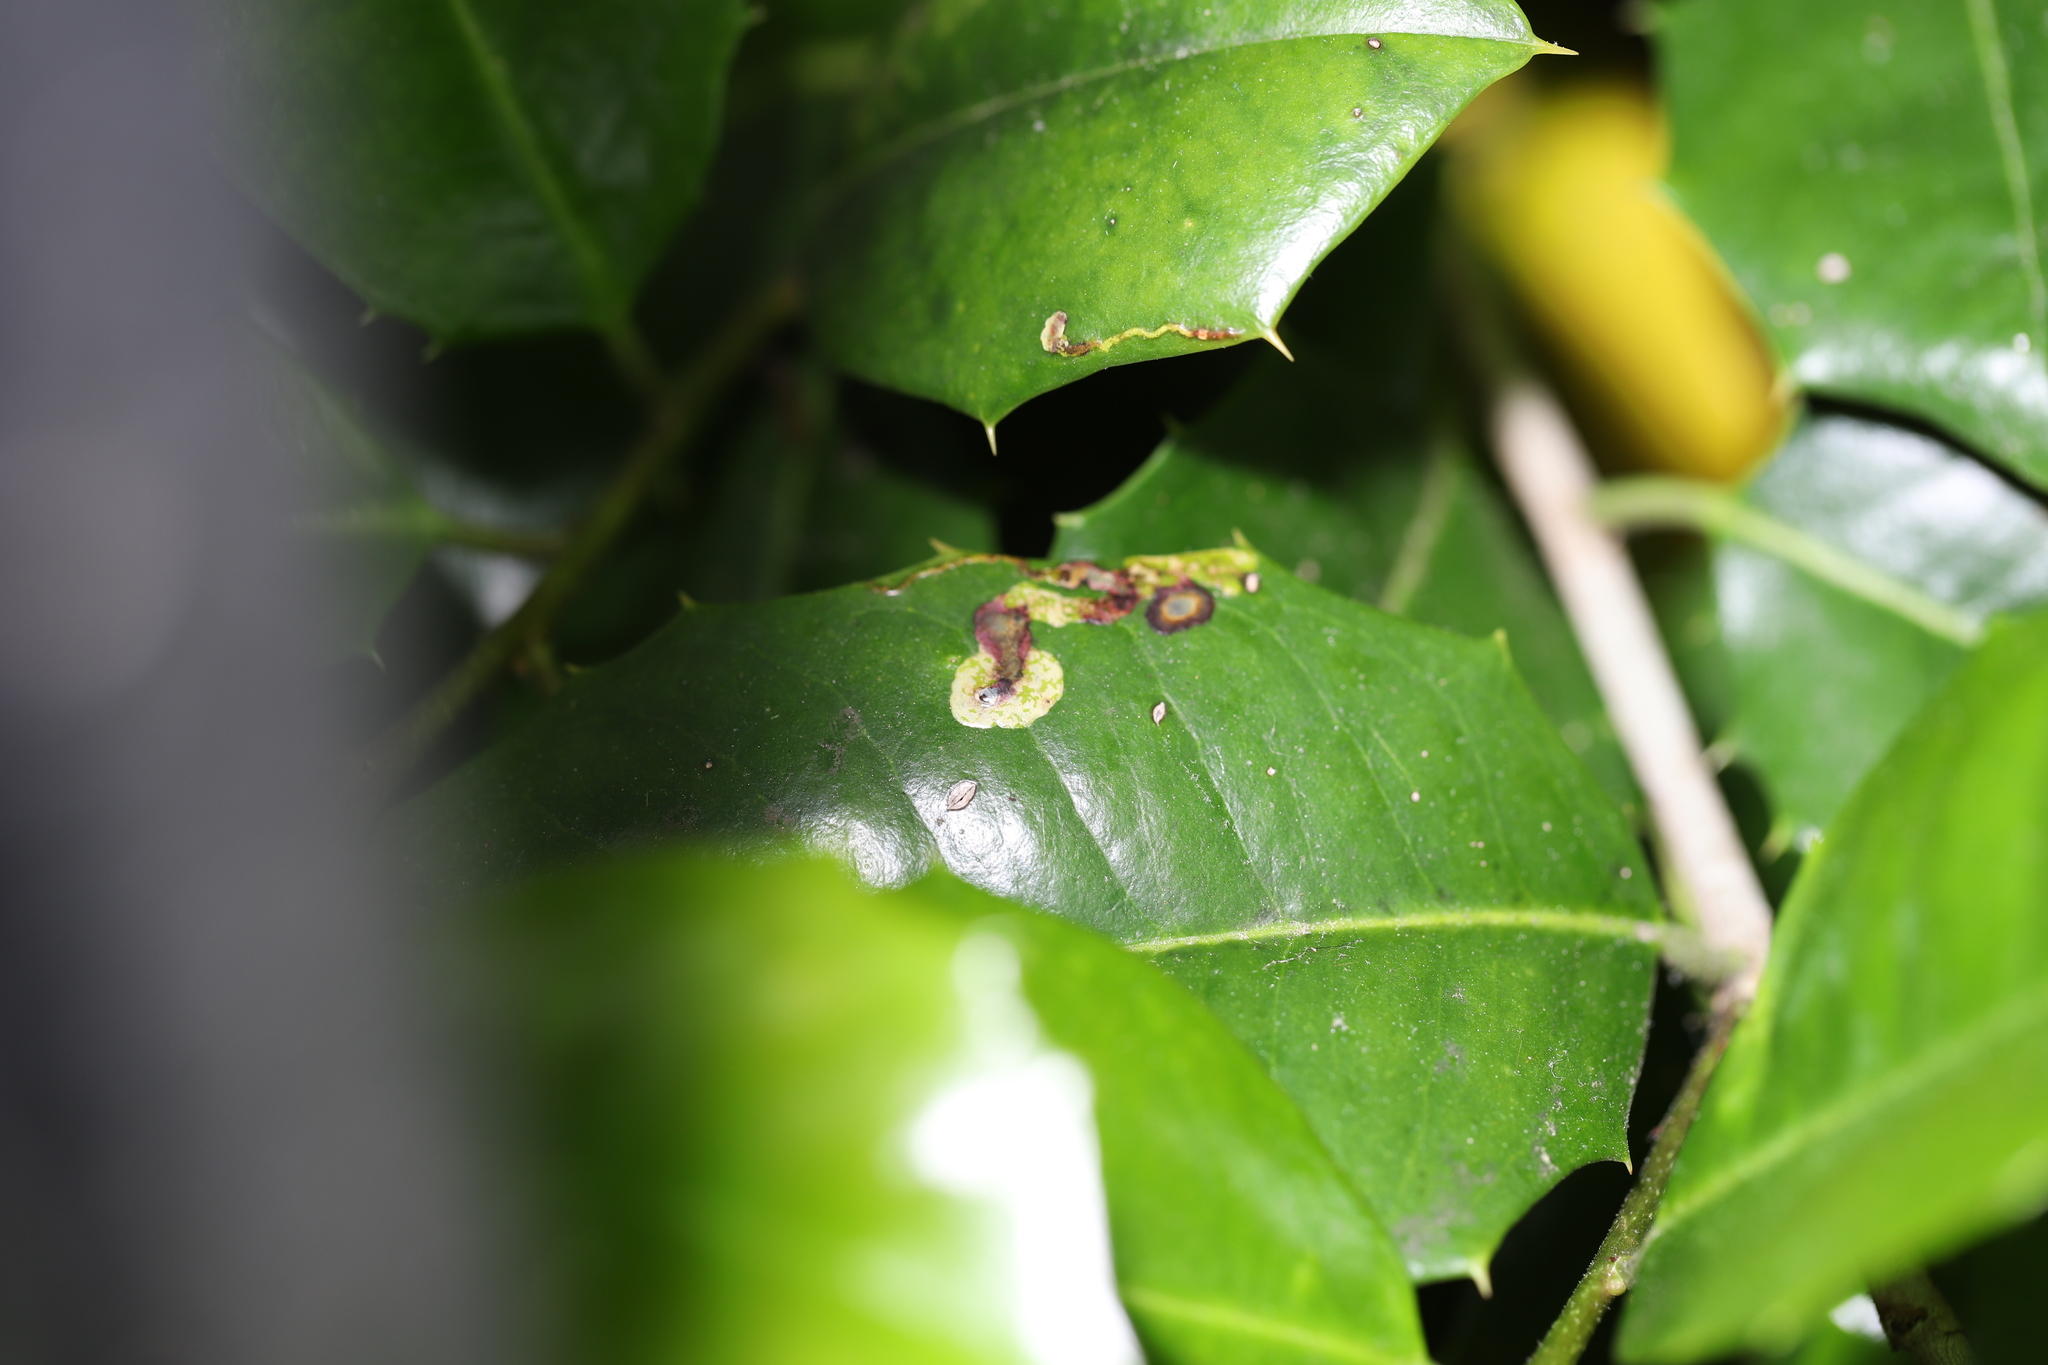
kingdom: Animalia
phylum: Arthropoda
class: Insecta
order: Diptera
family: Agromyzidae
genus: Phytomyza
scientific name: Phytomyza ilicicola
